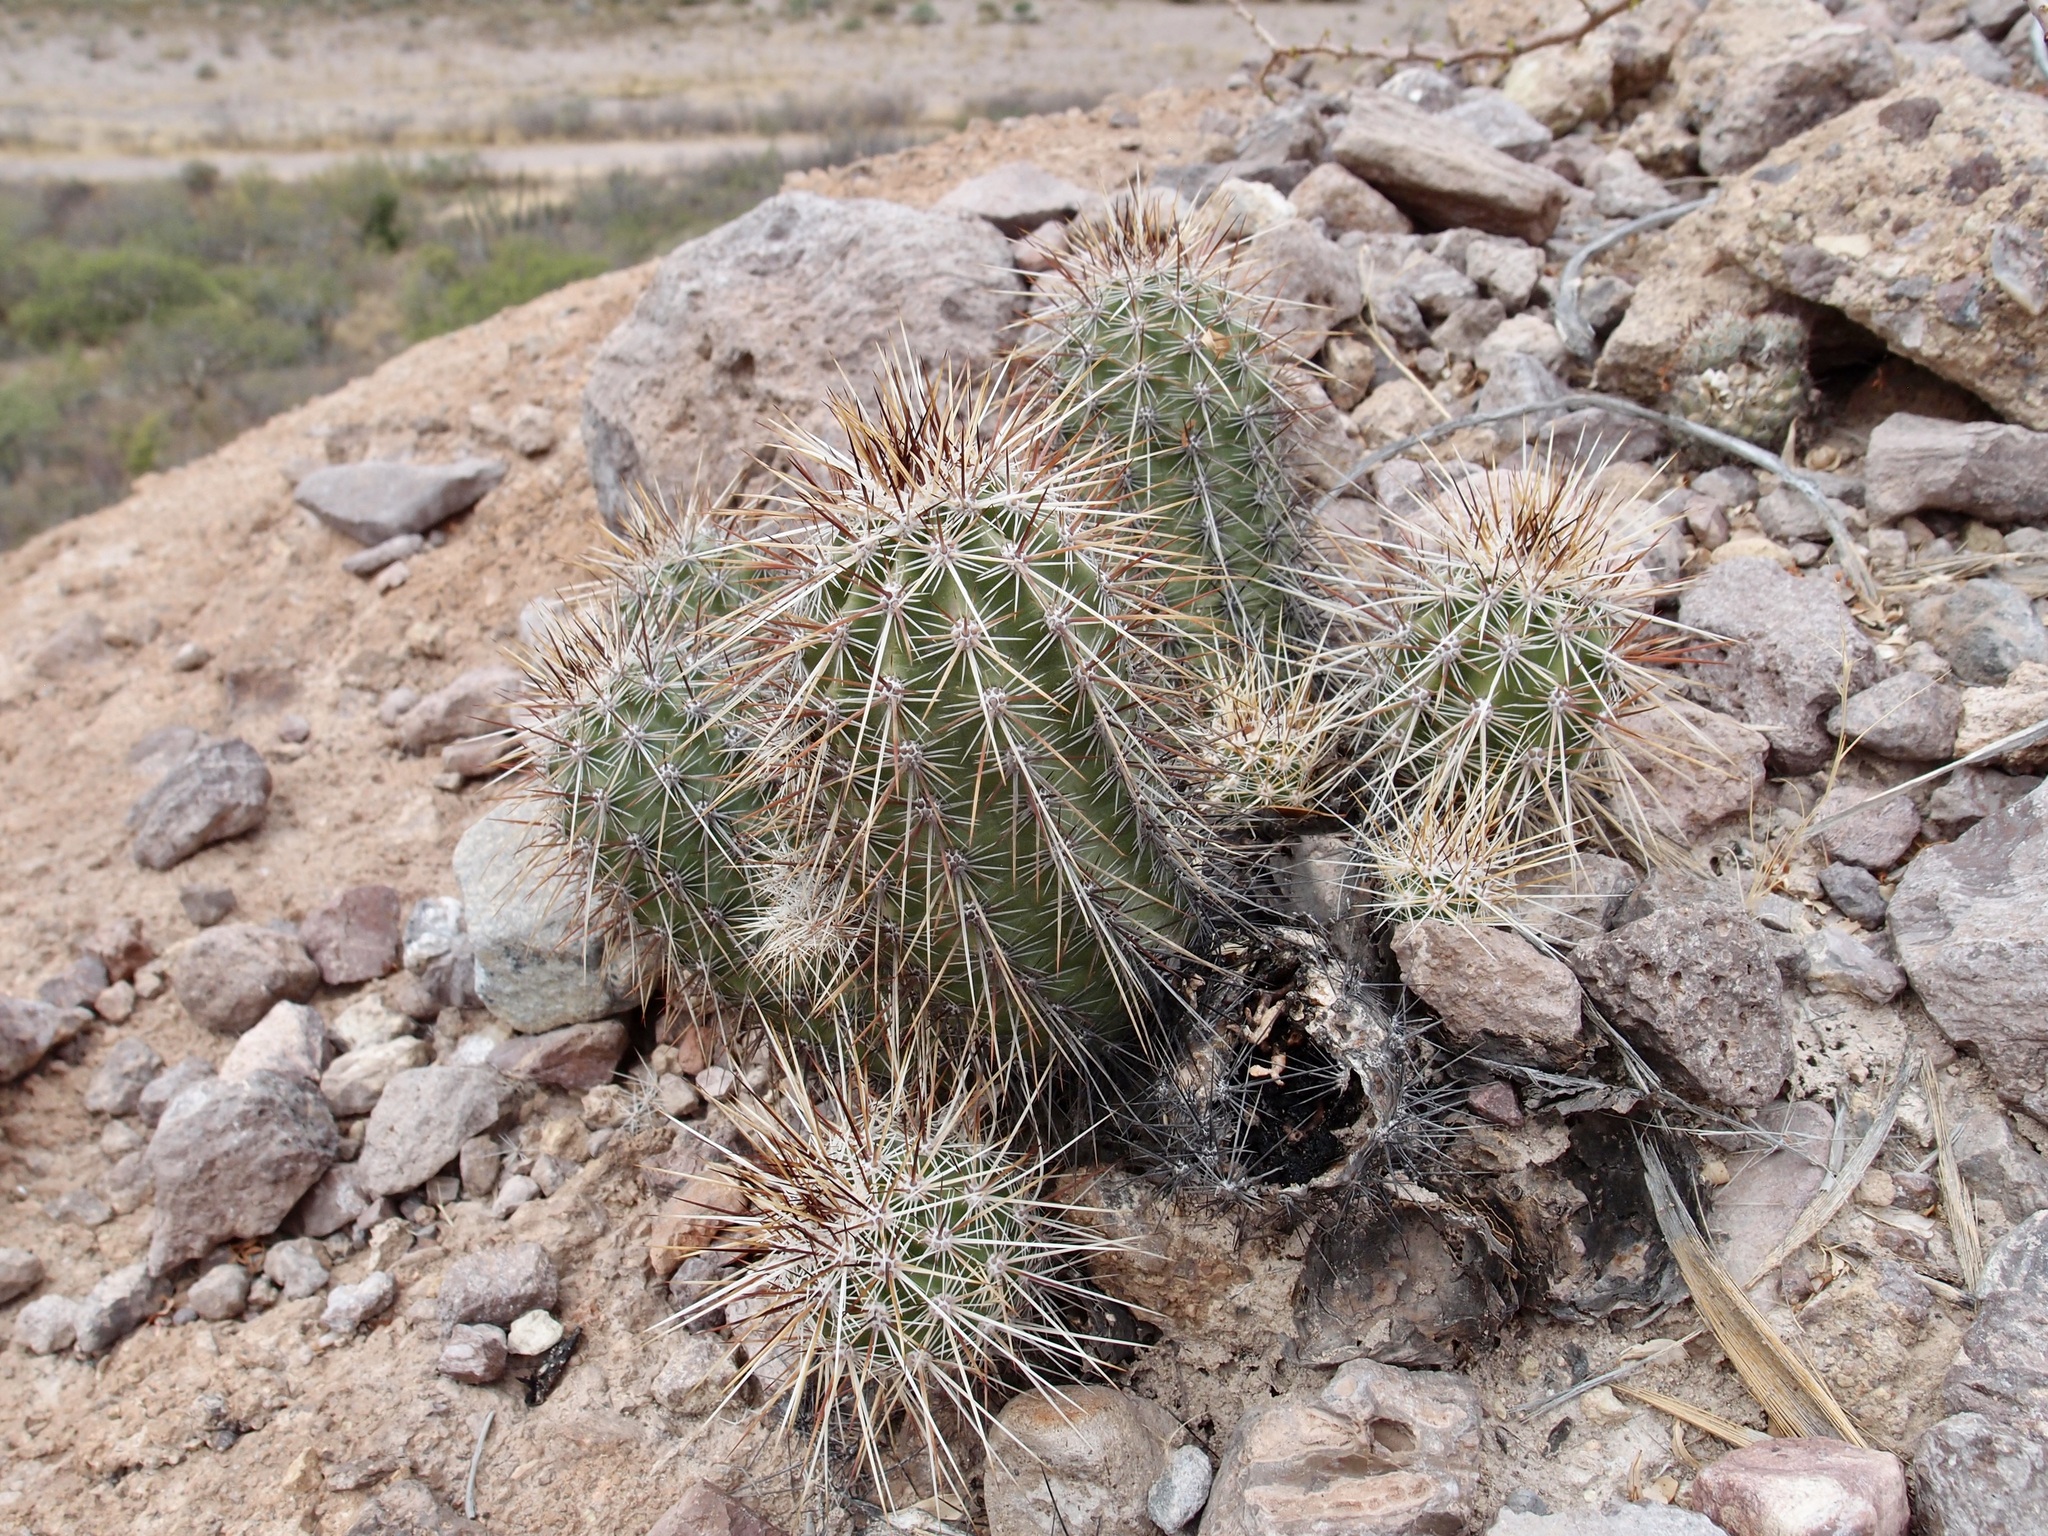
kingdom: Plantae
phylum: Tracheophyta
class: Magnoliopsida
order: Caryophyllales
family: Cactaceae
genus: Echinocereus
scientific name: Echinocereus llanurensis
